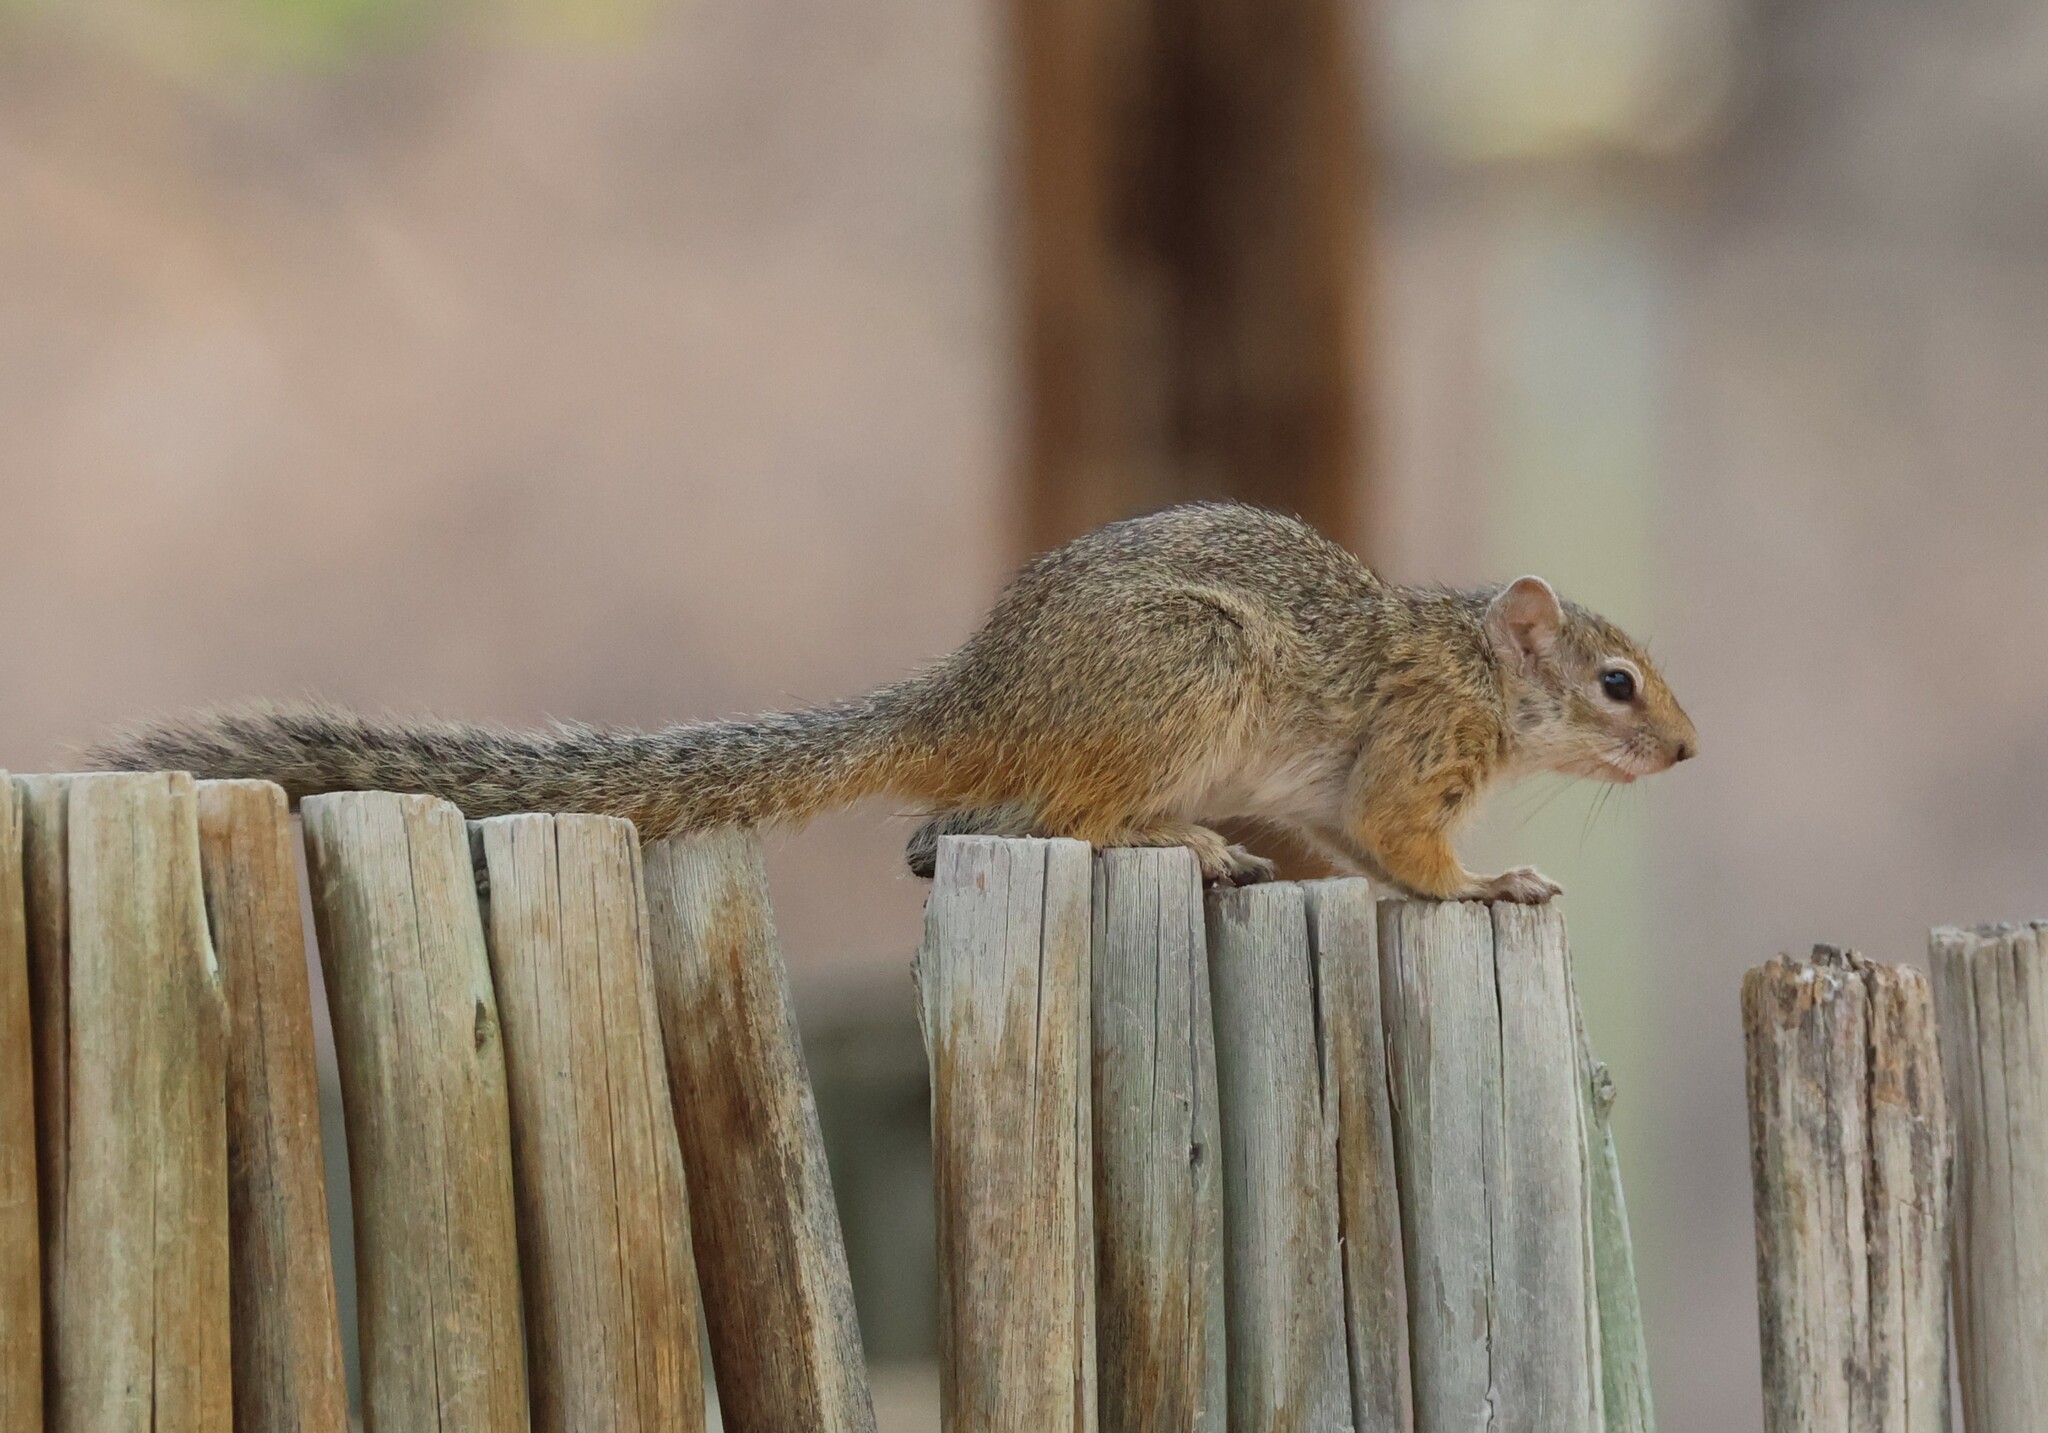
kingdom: Animalia
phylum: Chordata
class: Mammalia
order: Rodentia
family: Sciuridae
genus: Paraxerus
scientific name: Paraxerus cepapi
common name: Smith's bush squirrel
